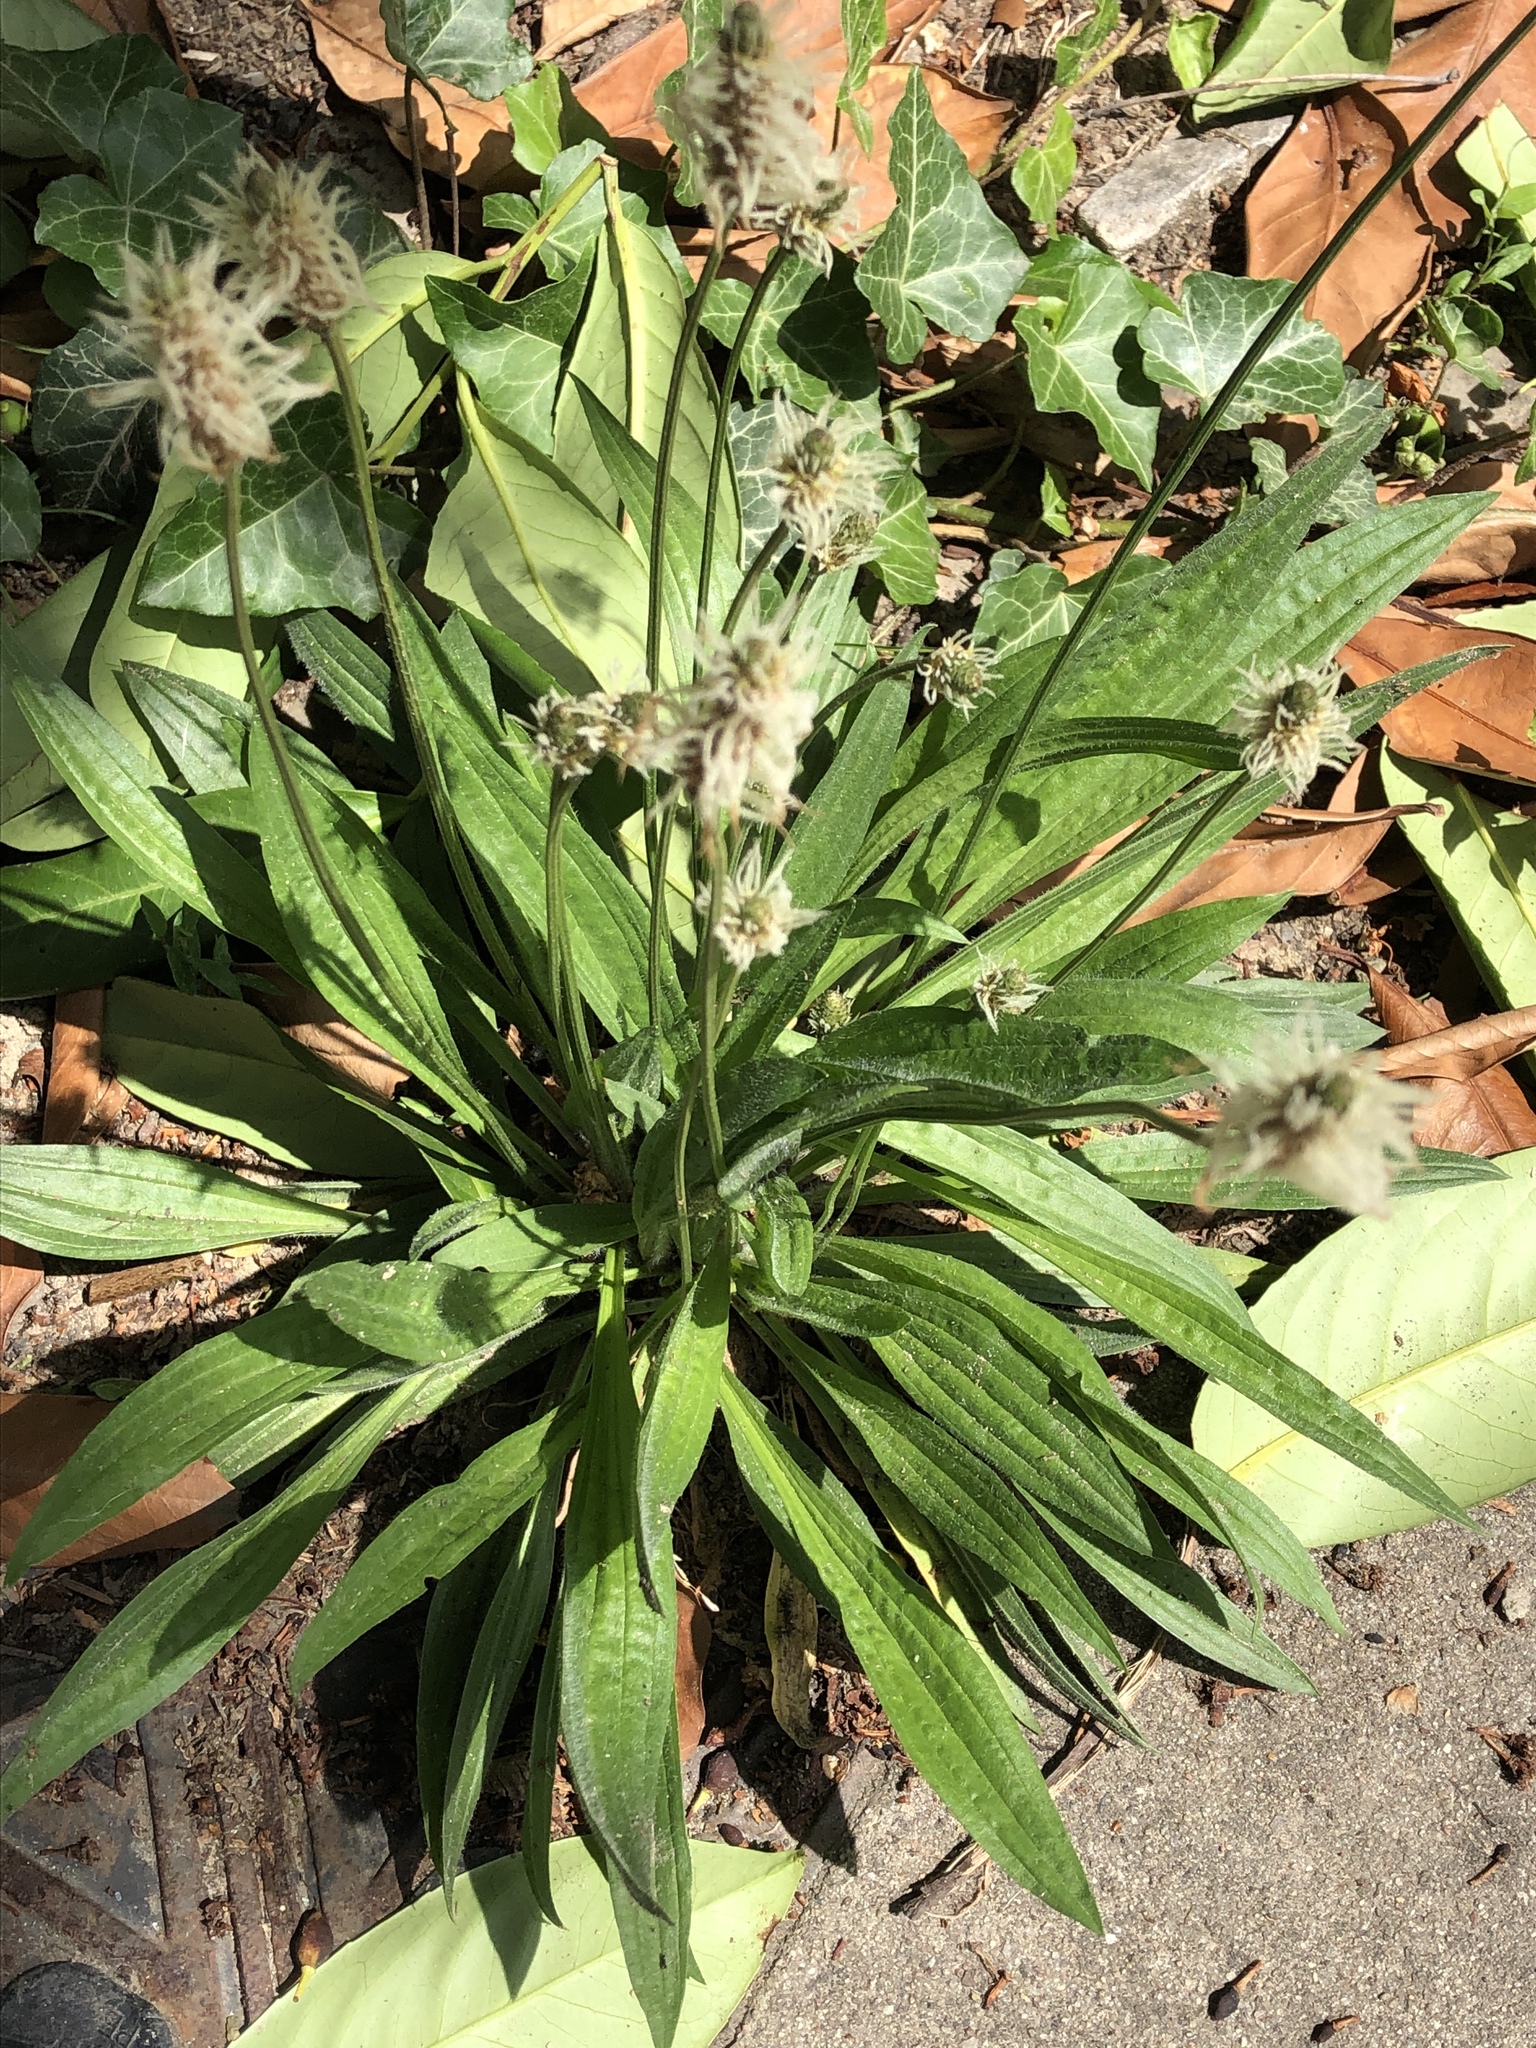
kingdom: Plantae
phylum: Tracheophyta
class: Magnoliopsida
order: Lamiales
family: Plantaginaceae
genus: Plantago
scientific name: Plantago lanceolata
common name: Ribwort plantain
